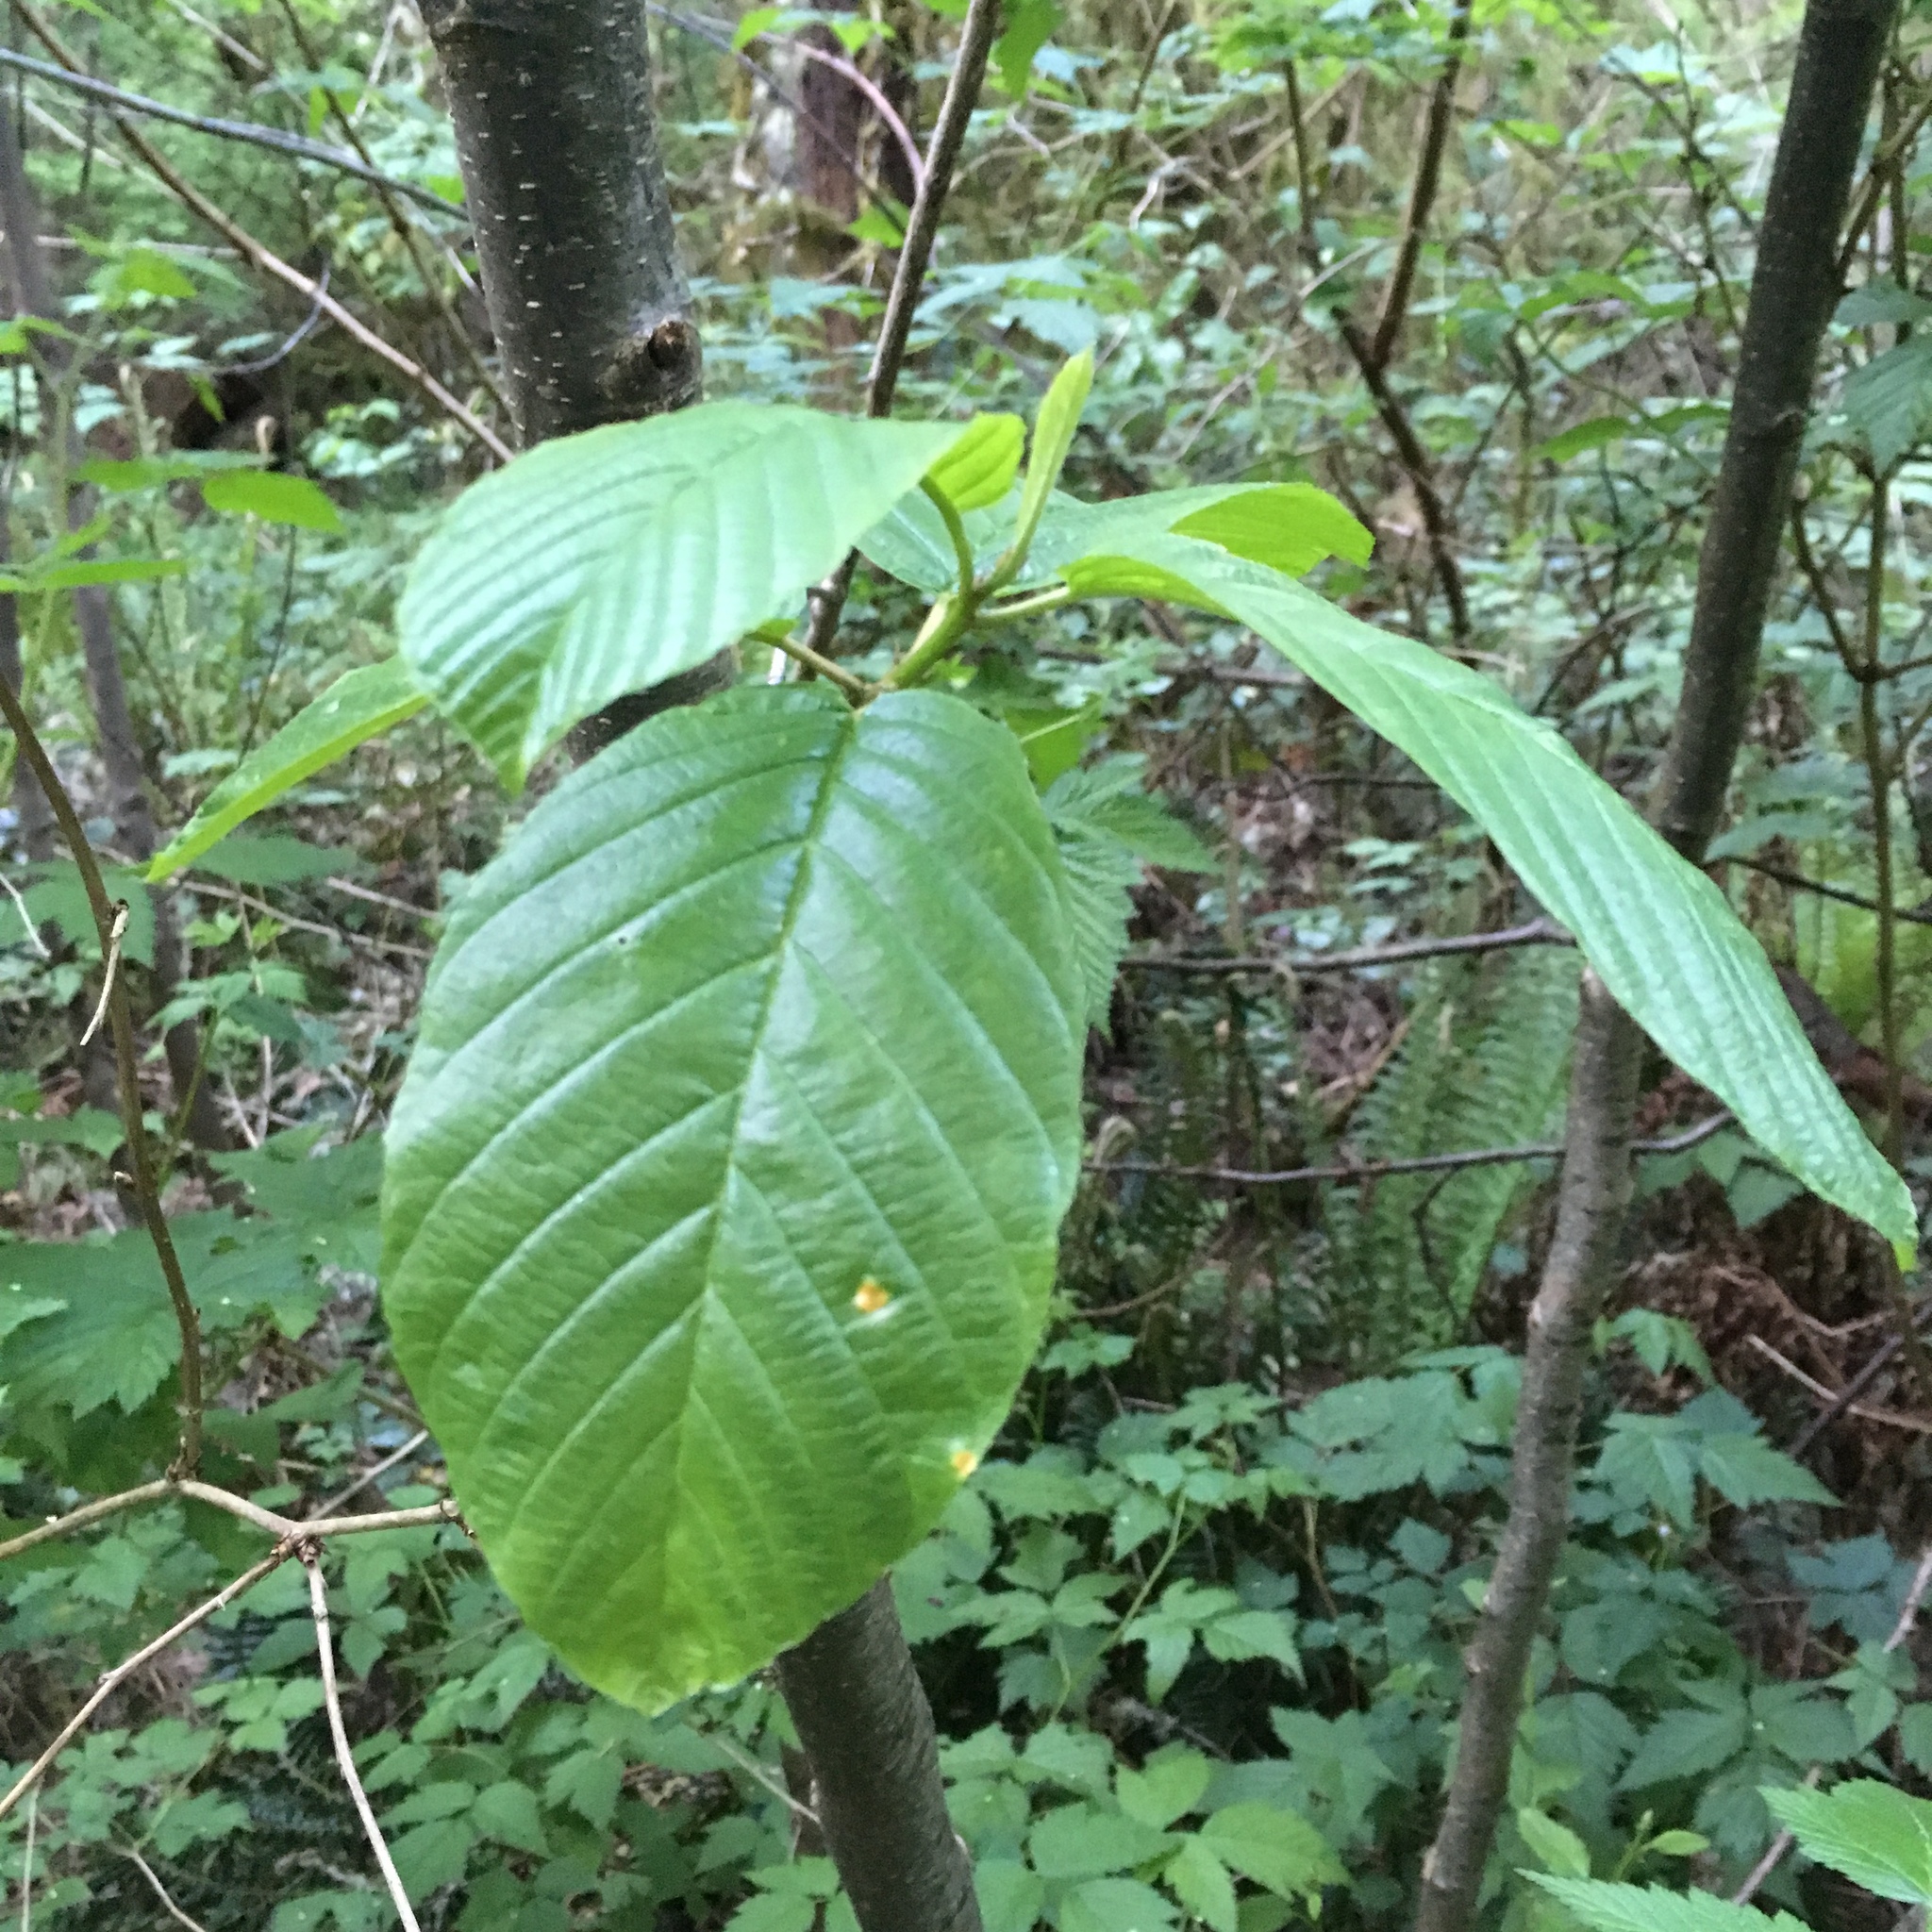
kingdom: Plantae
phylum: Tracheophyta
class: Magnoliopsida
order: Rosales
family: Rhamnaceae
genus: Frangula
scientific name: Frangula purshiana
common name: Cascara buckthorn
